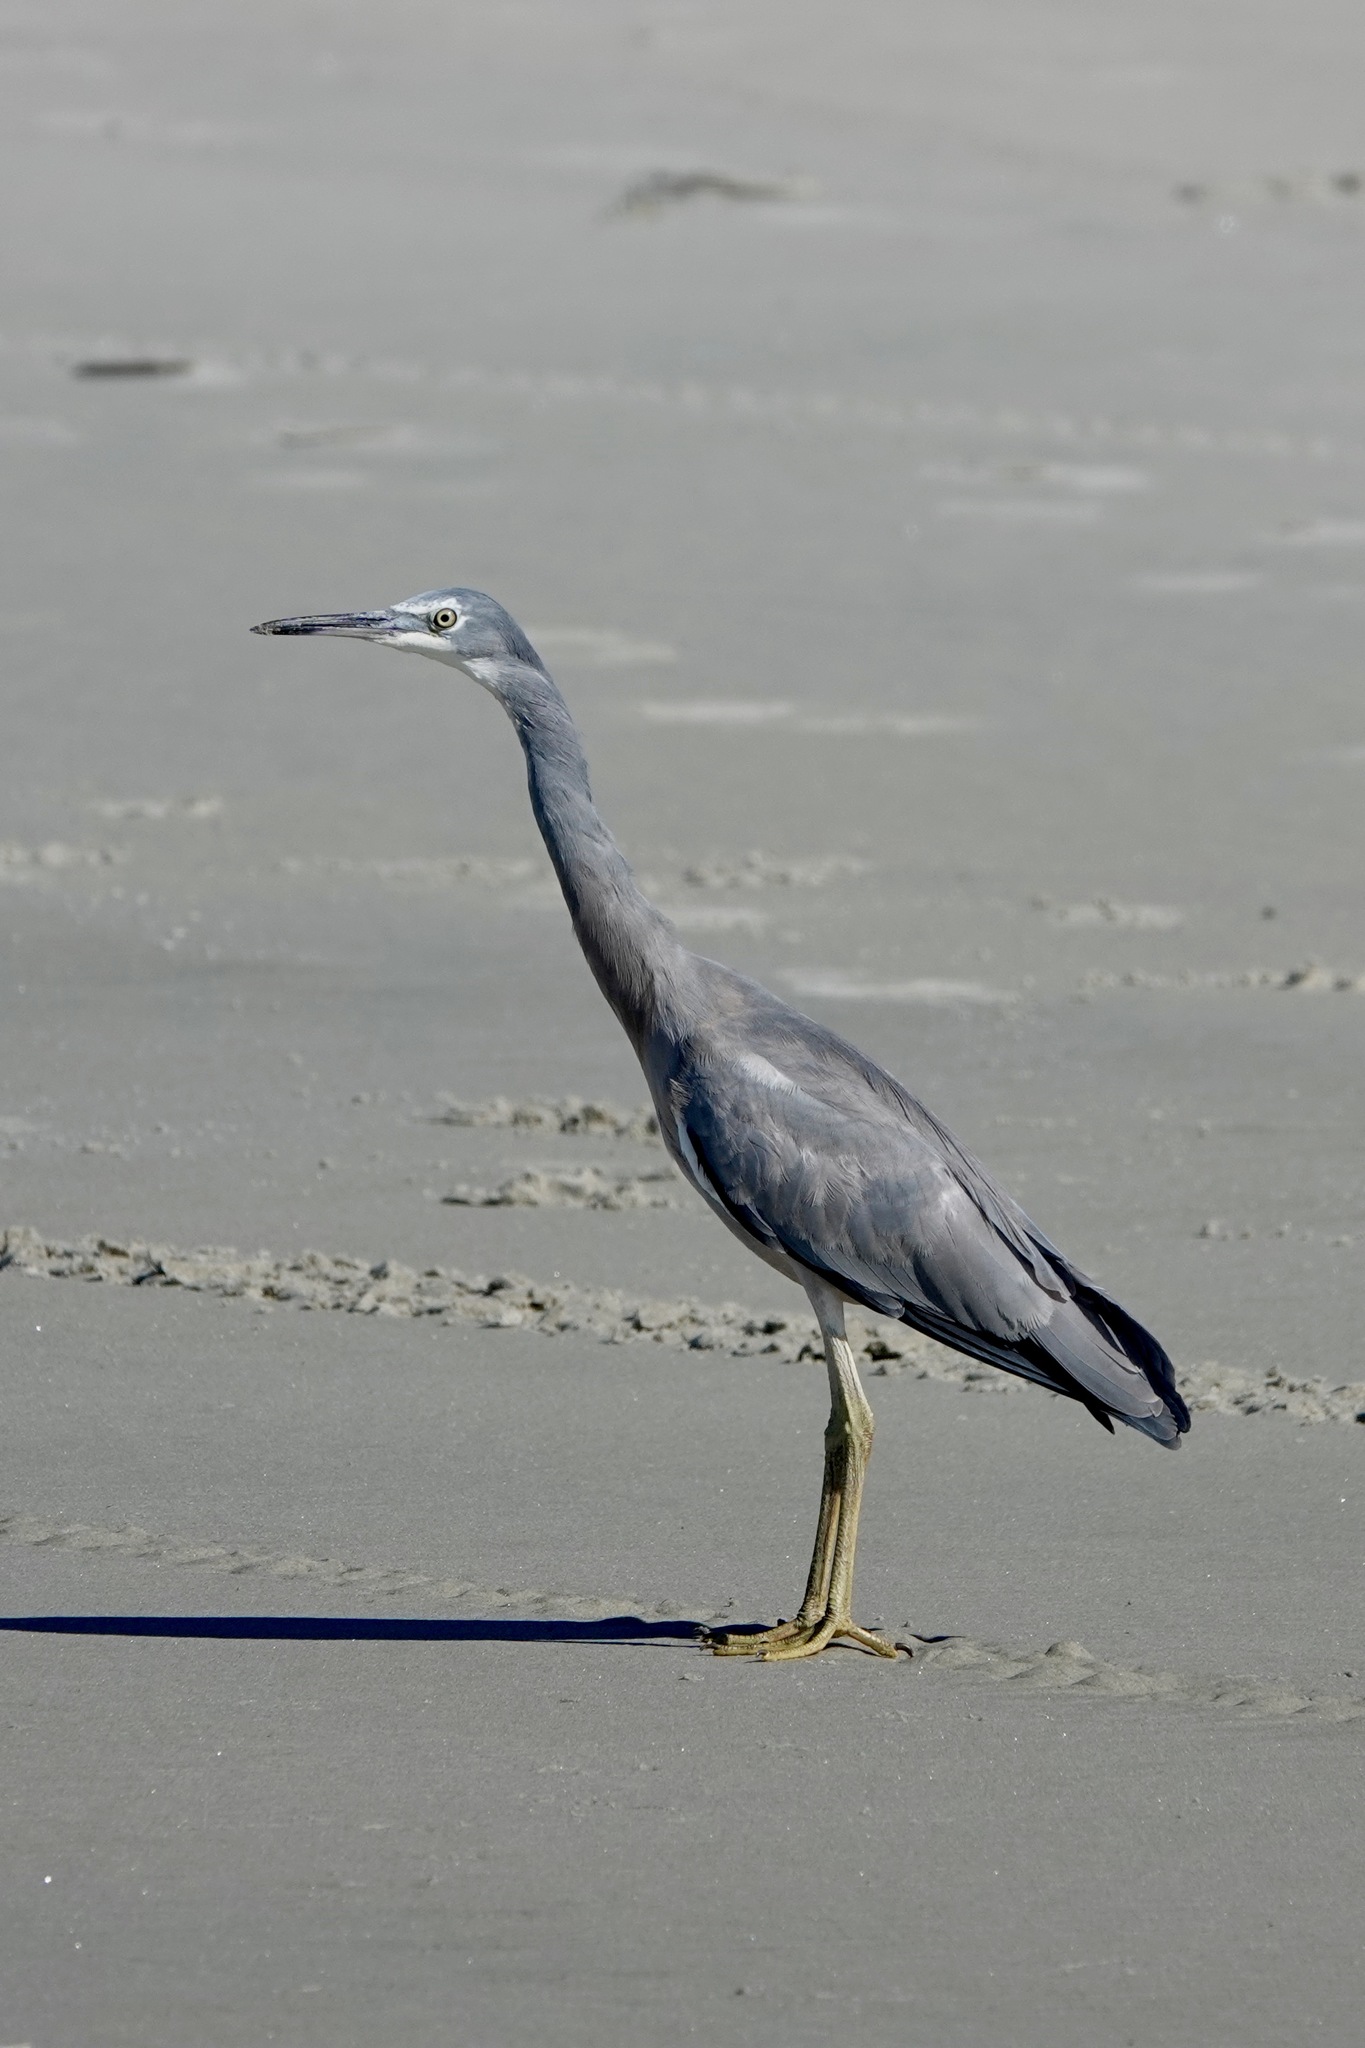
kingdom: Animalia
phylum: Chordata
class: Aves
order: Pelecaniformes
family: Ardeidae
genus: Egretta
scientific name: Egretta novaehollandiae
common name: White-faced heron
